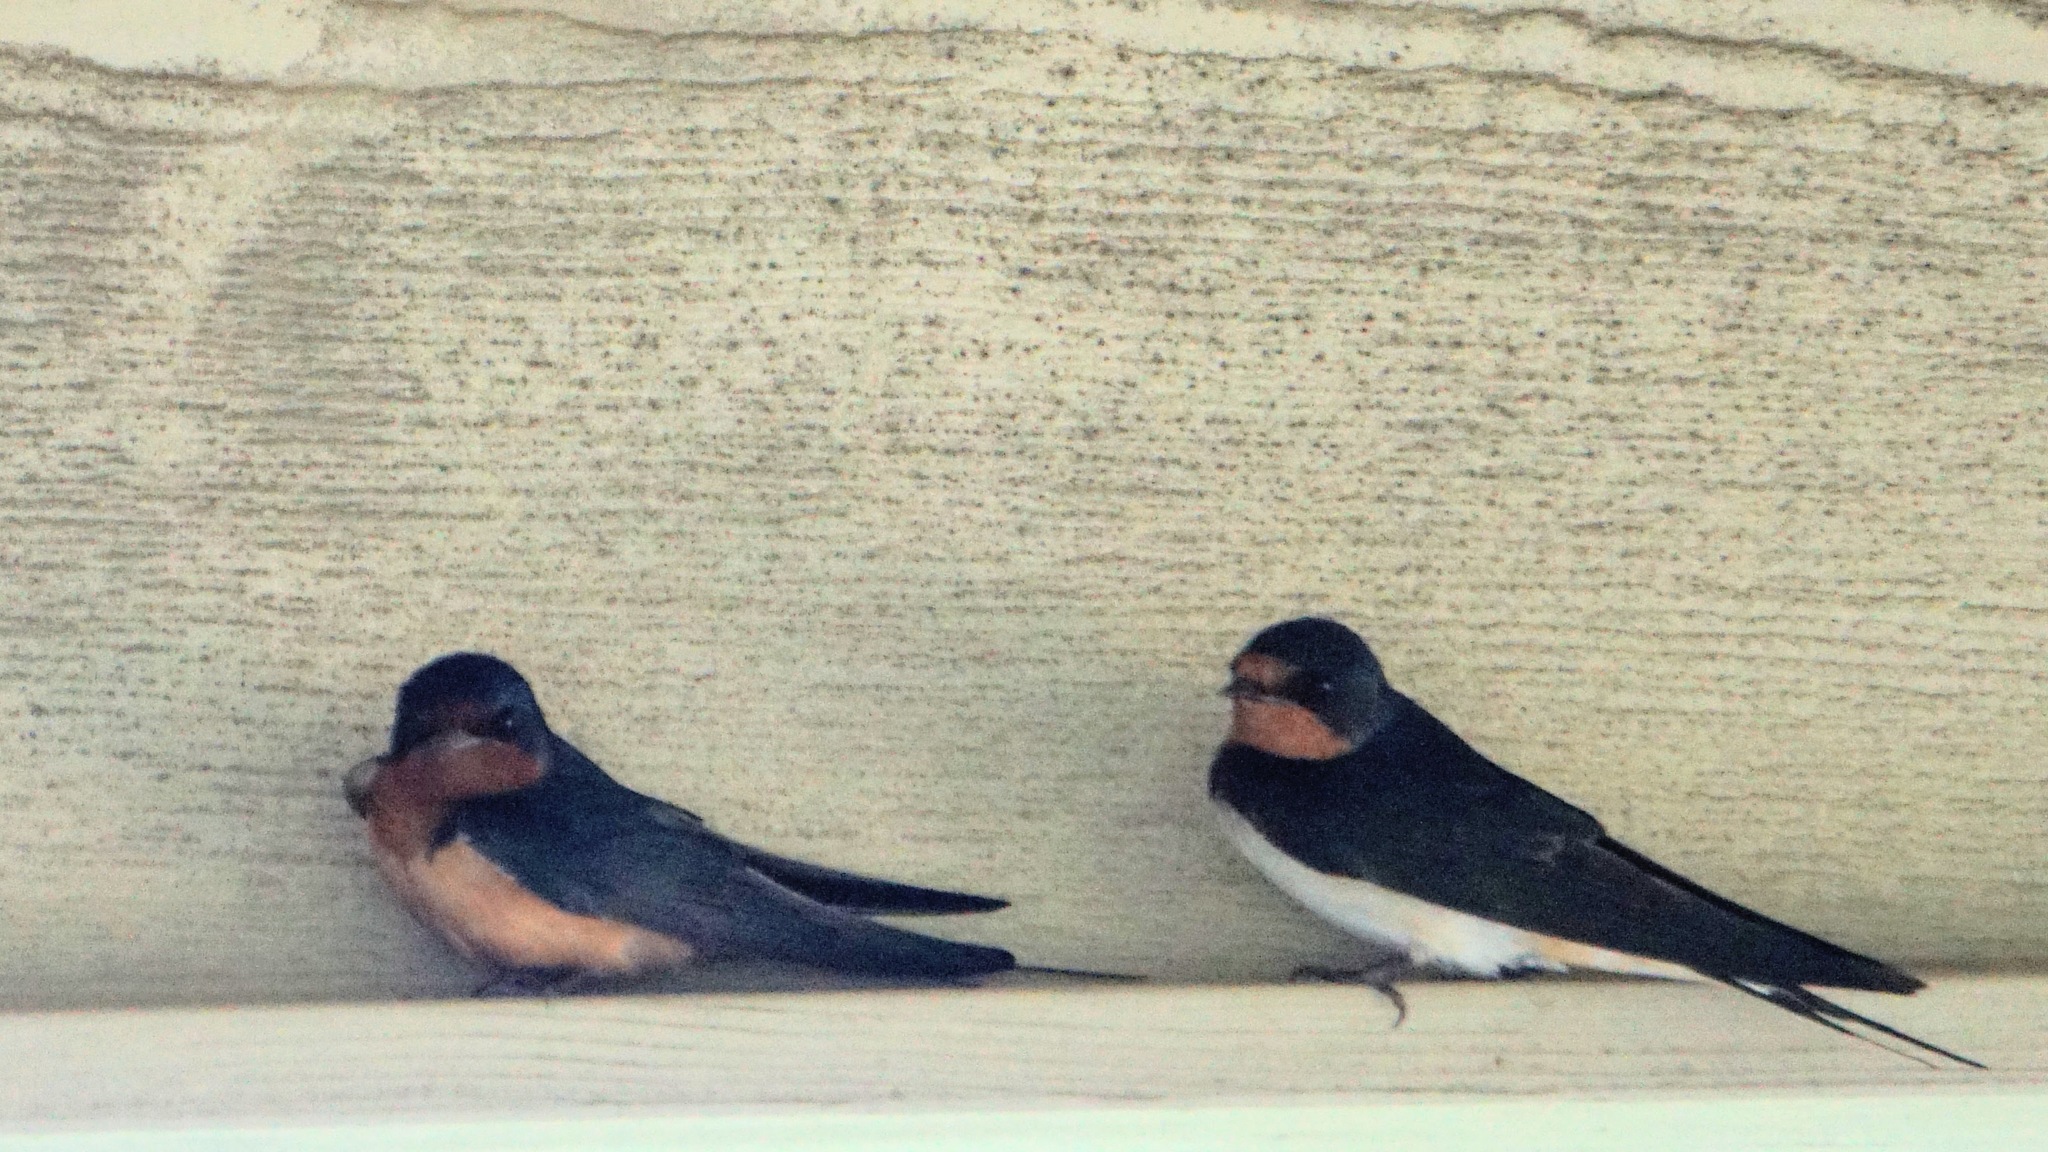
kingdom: Animalia
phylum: Chordata
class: Aves
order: Passeriformes
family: Hirundinidae
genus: Hirundo
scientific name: Hirundo rustica
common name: Barn swallow
